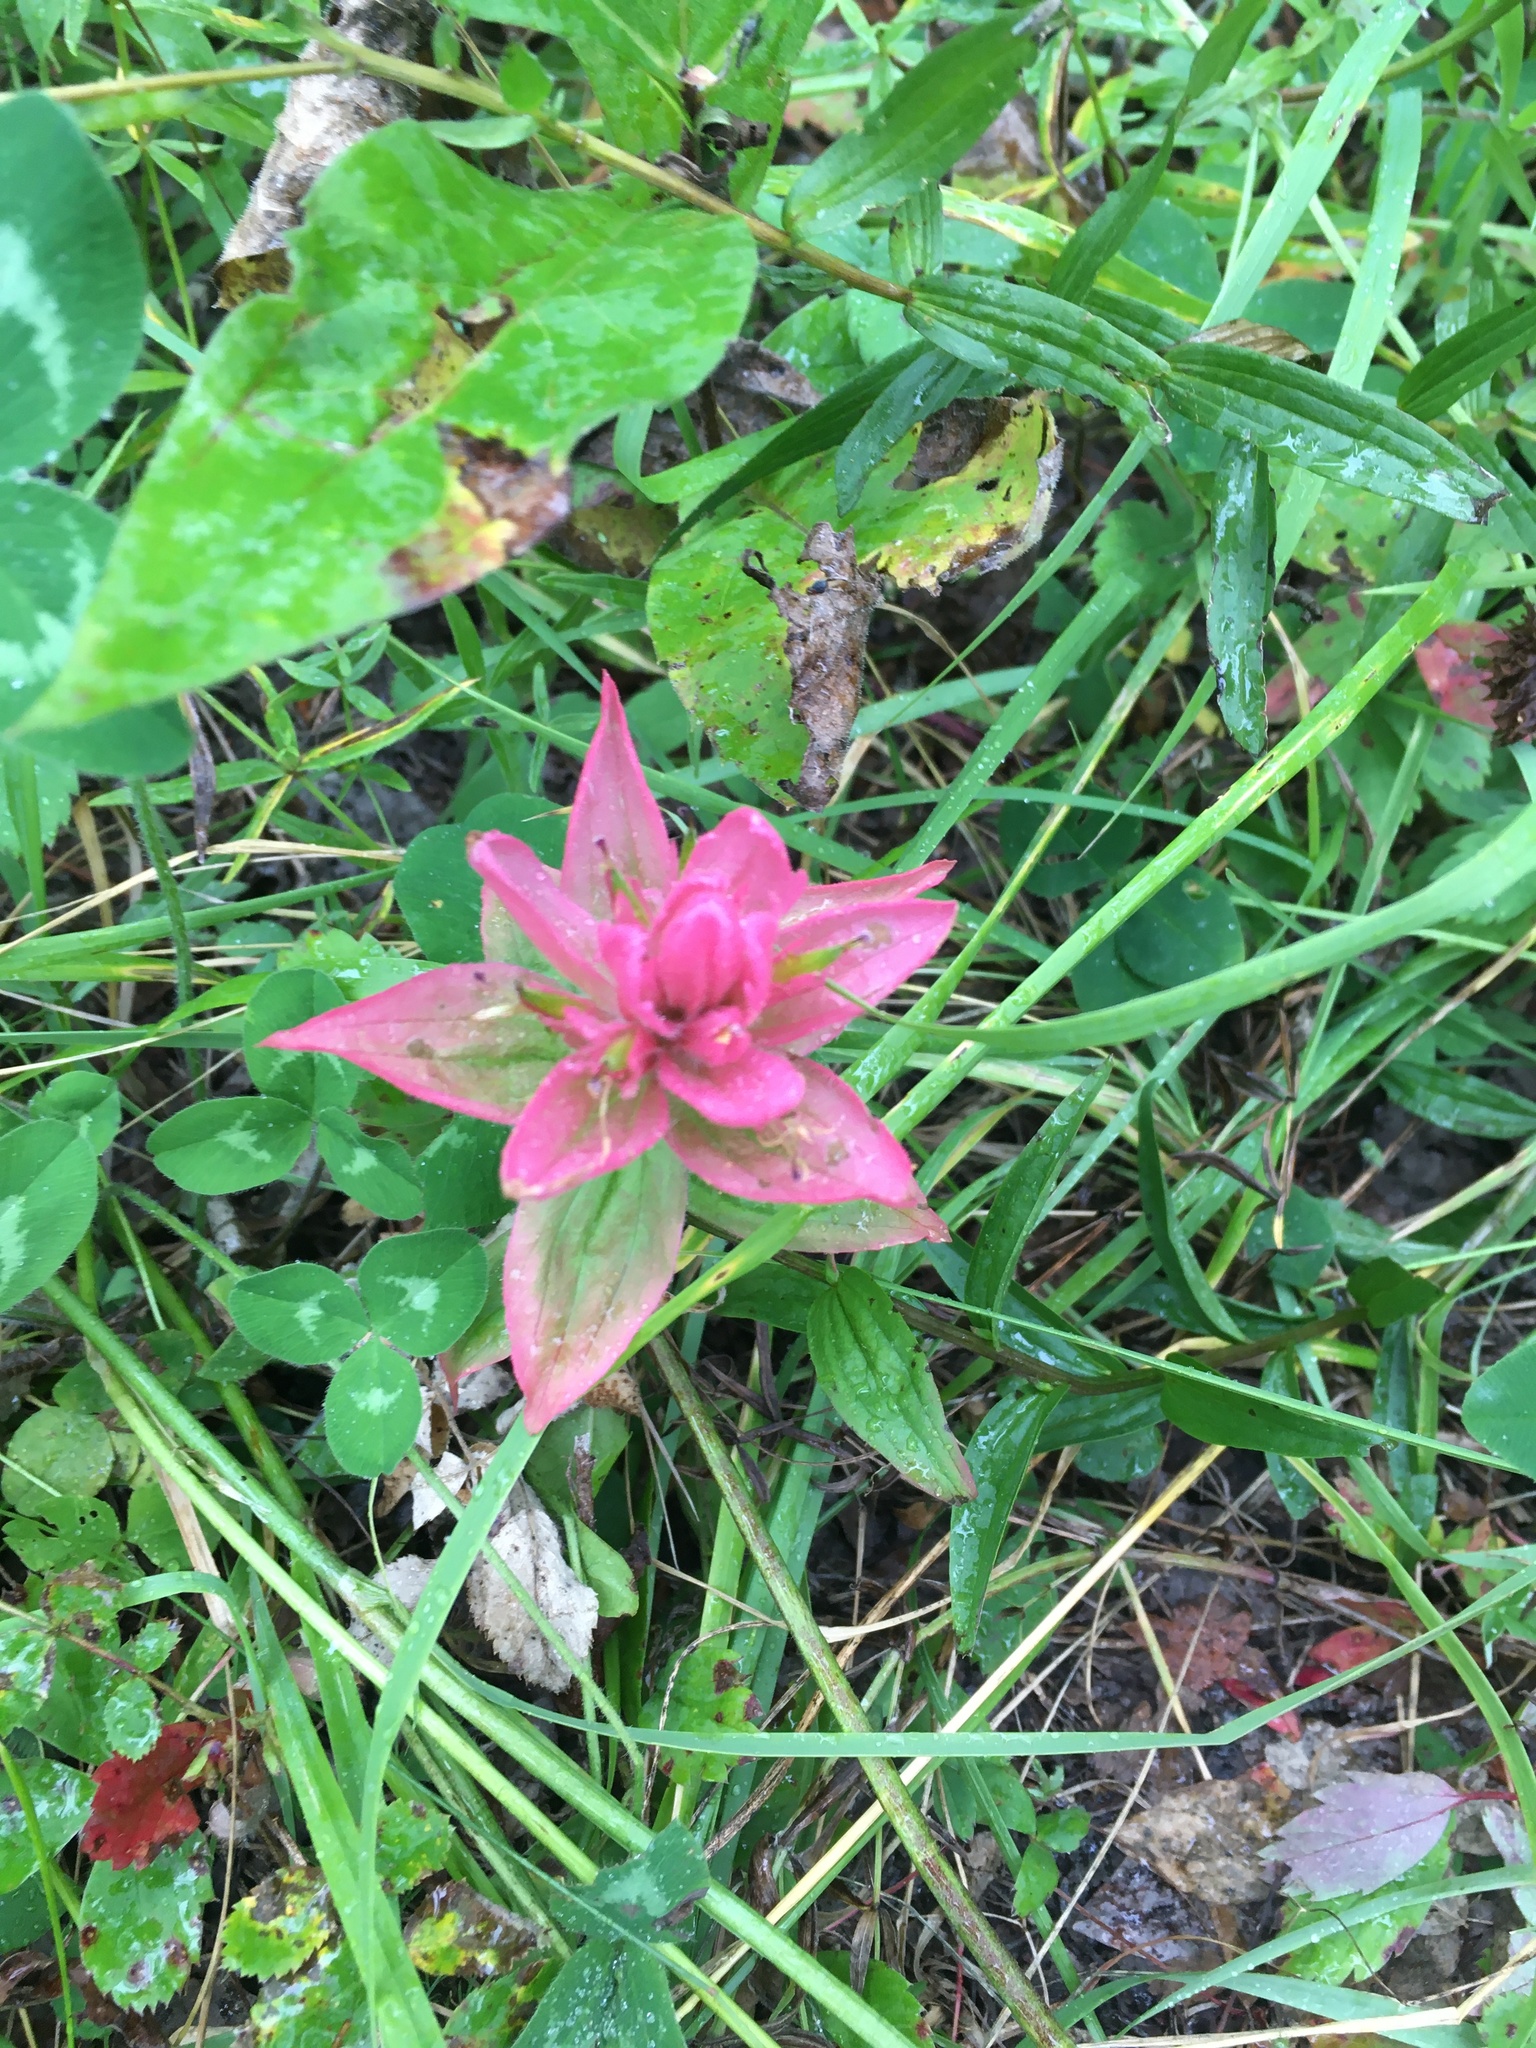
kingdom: Plantae
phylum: Tracheophyta
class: Magnoliopsida
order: Lamiales
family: Orobanchaceae
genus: Castilleja
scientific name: Castilleja miniata
